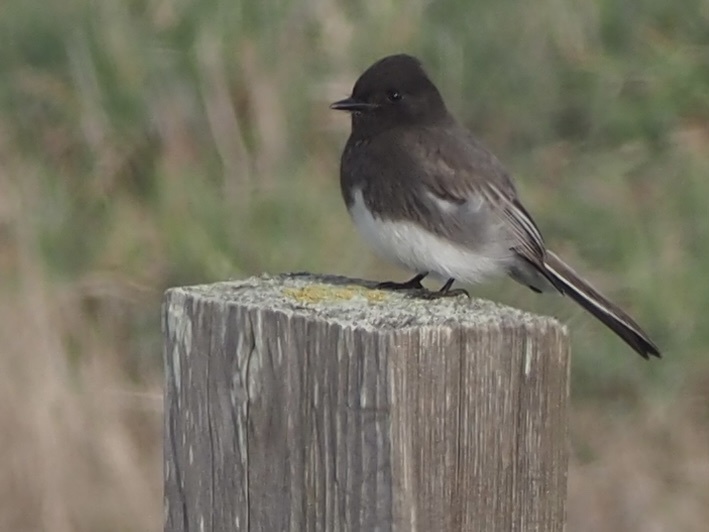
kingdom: Animalia
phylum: Chordata
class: Aves
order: Passeriformes
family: Tyrannidae
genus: Sayornis
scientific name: Sayornis nigricans
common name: Black phoebe
